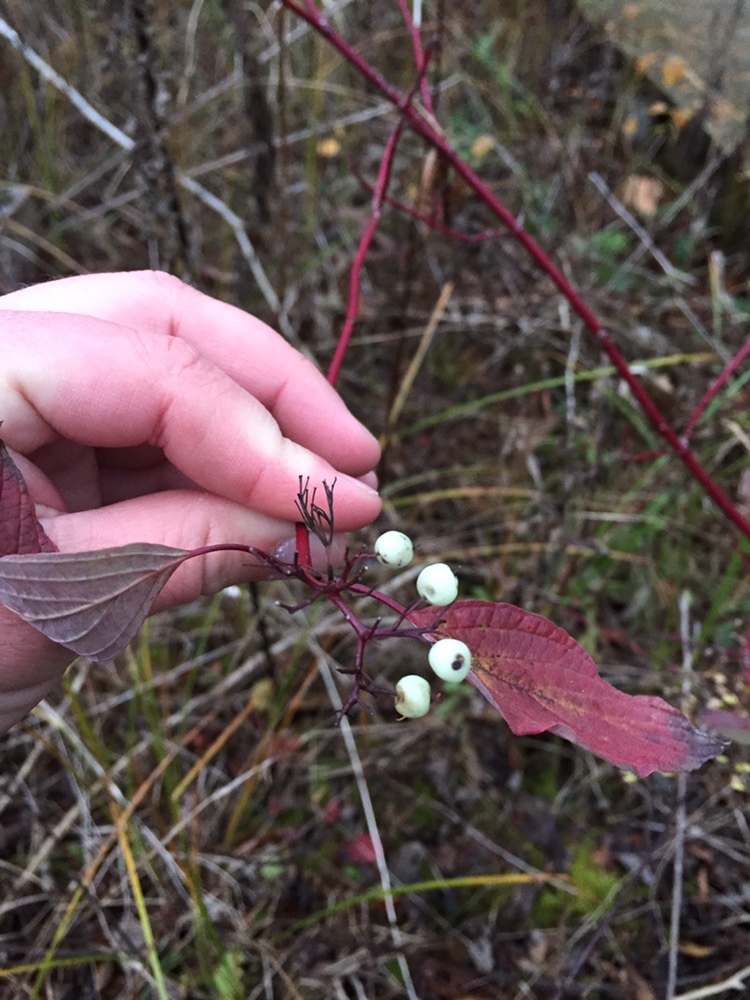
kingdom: Plantae
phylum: Tracheophyta
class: Magnoliopsida
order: Cornales
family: Cornaceae
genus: Cornus
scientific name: Cornus sericea
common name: Red-osier dogwood
